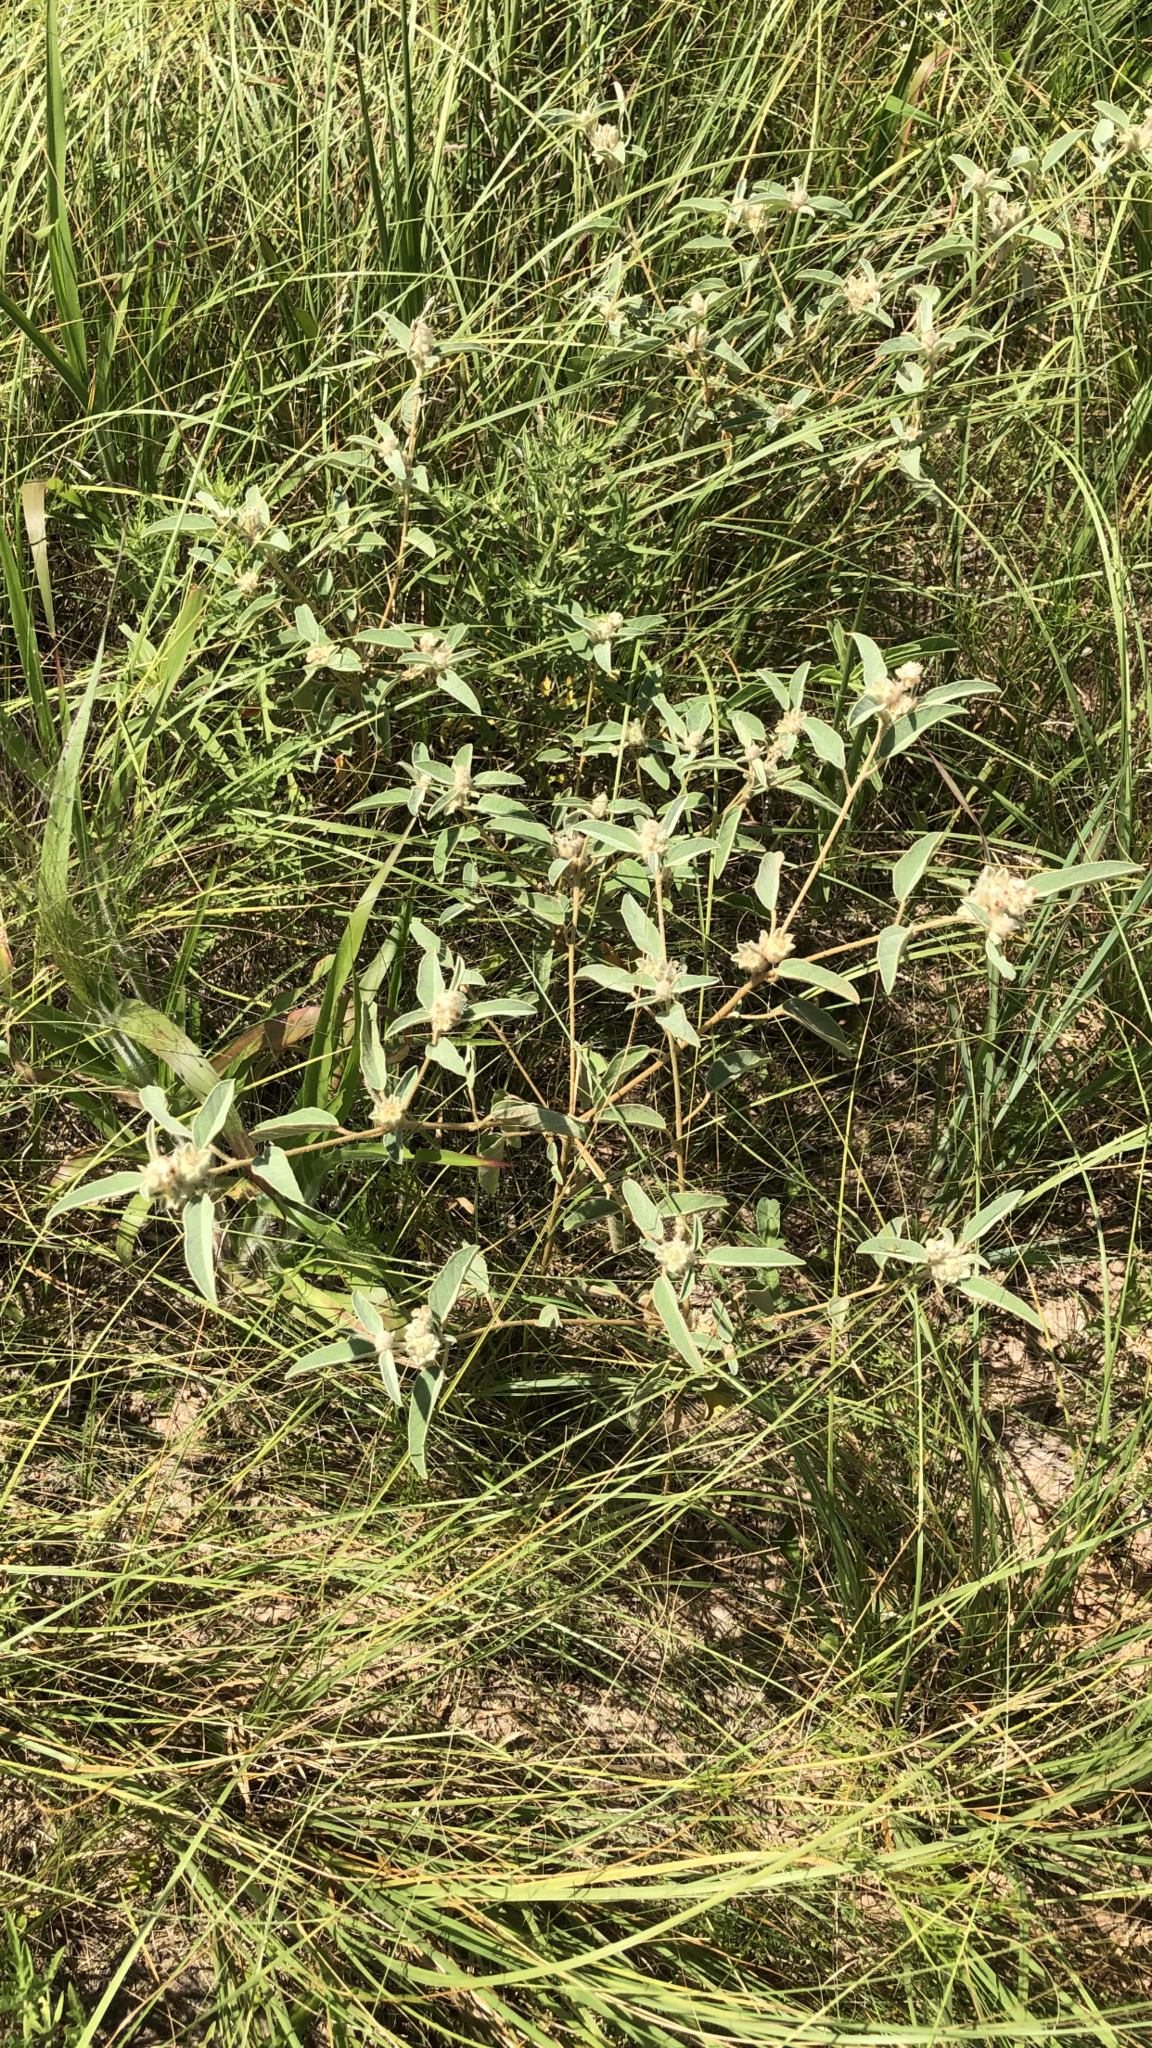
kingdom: Plantae
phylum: Tracheophyta
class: Magnoliopsida
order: Malpighiales
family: Euphorbiaceae
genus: Croton
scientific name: Croton capitatus
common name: Woolly croton
